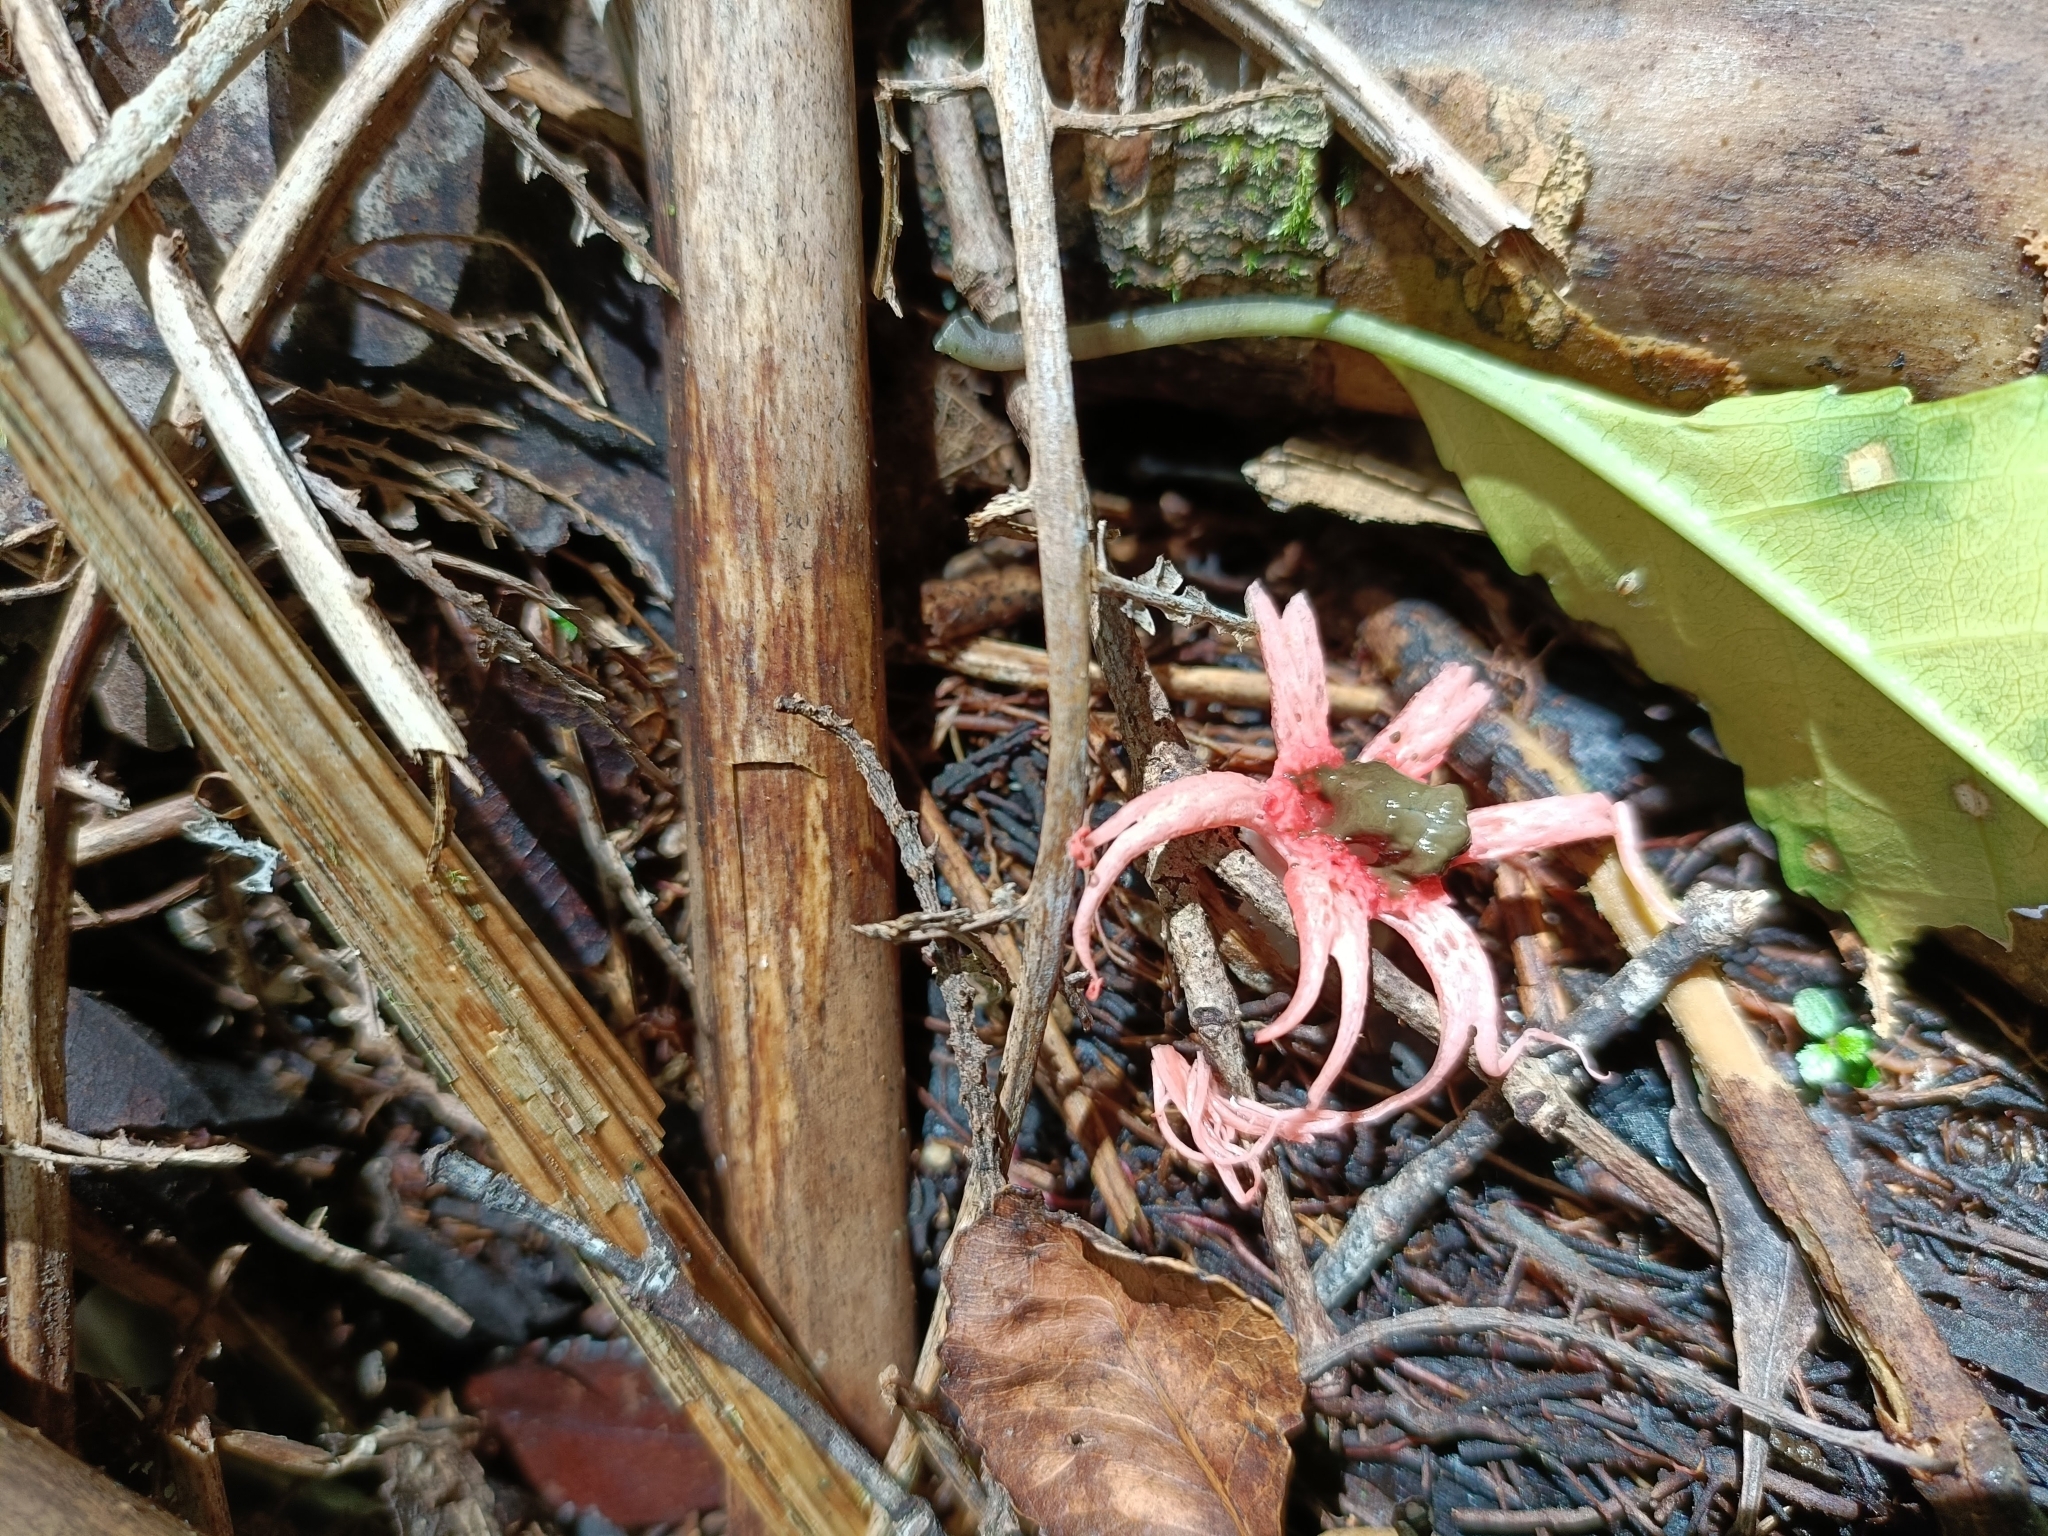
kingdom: Fungi
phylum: Basidiomycota
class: Agaricomycetes
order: Phallales
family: Phallaceae
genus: Aseroe
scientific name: Aseroe rubra
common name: Starfish fungus
